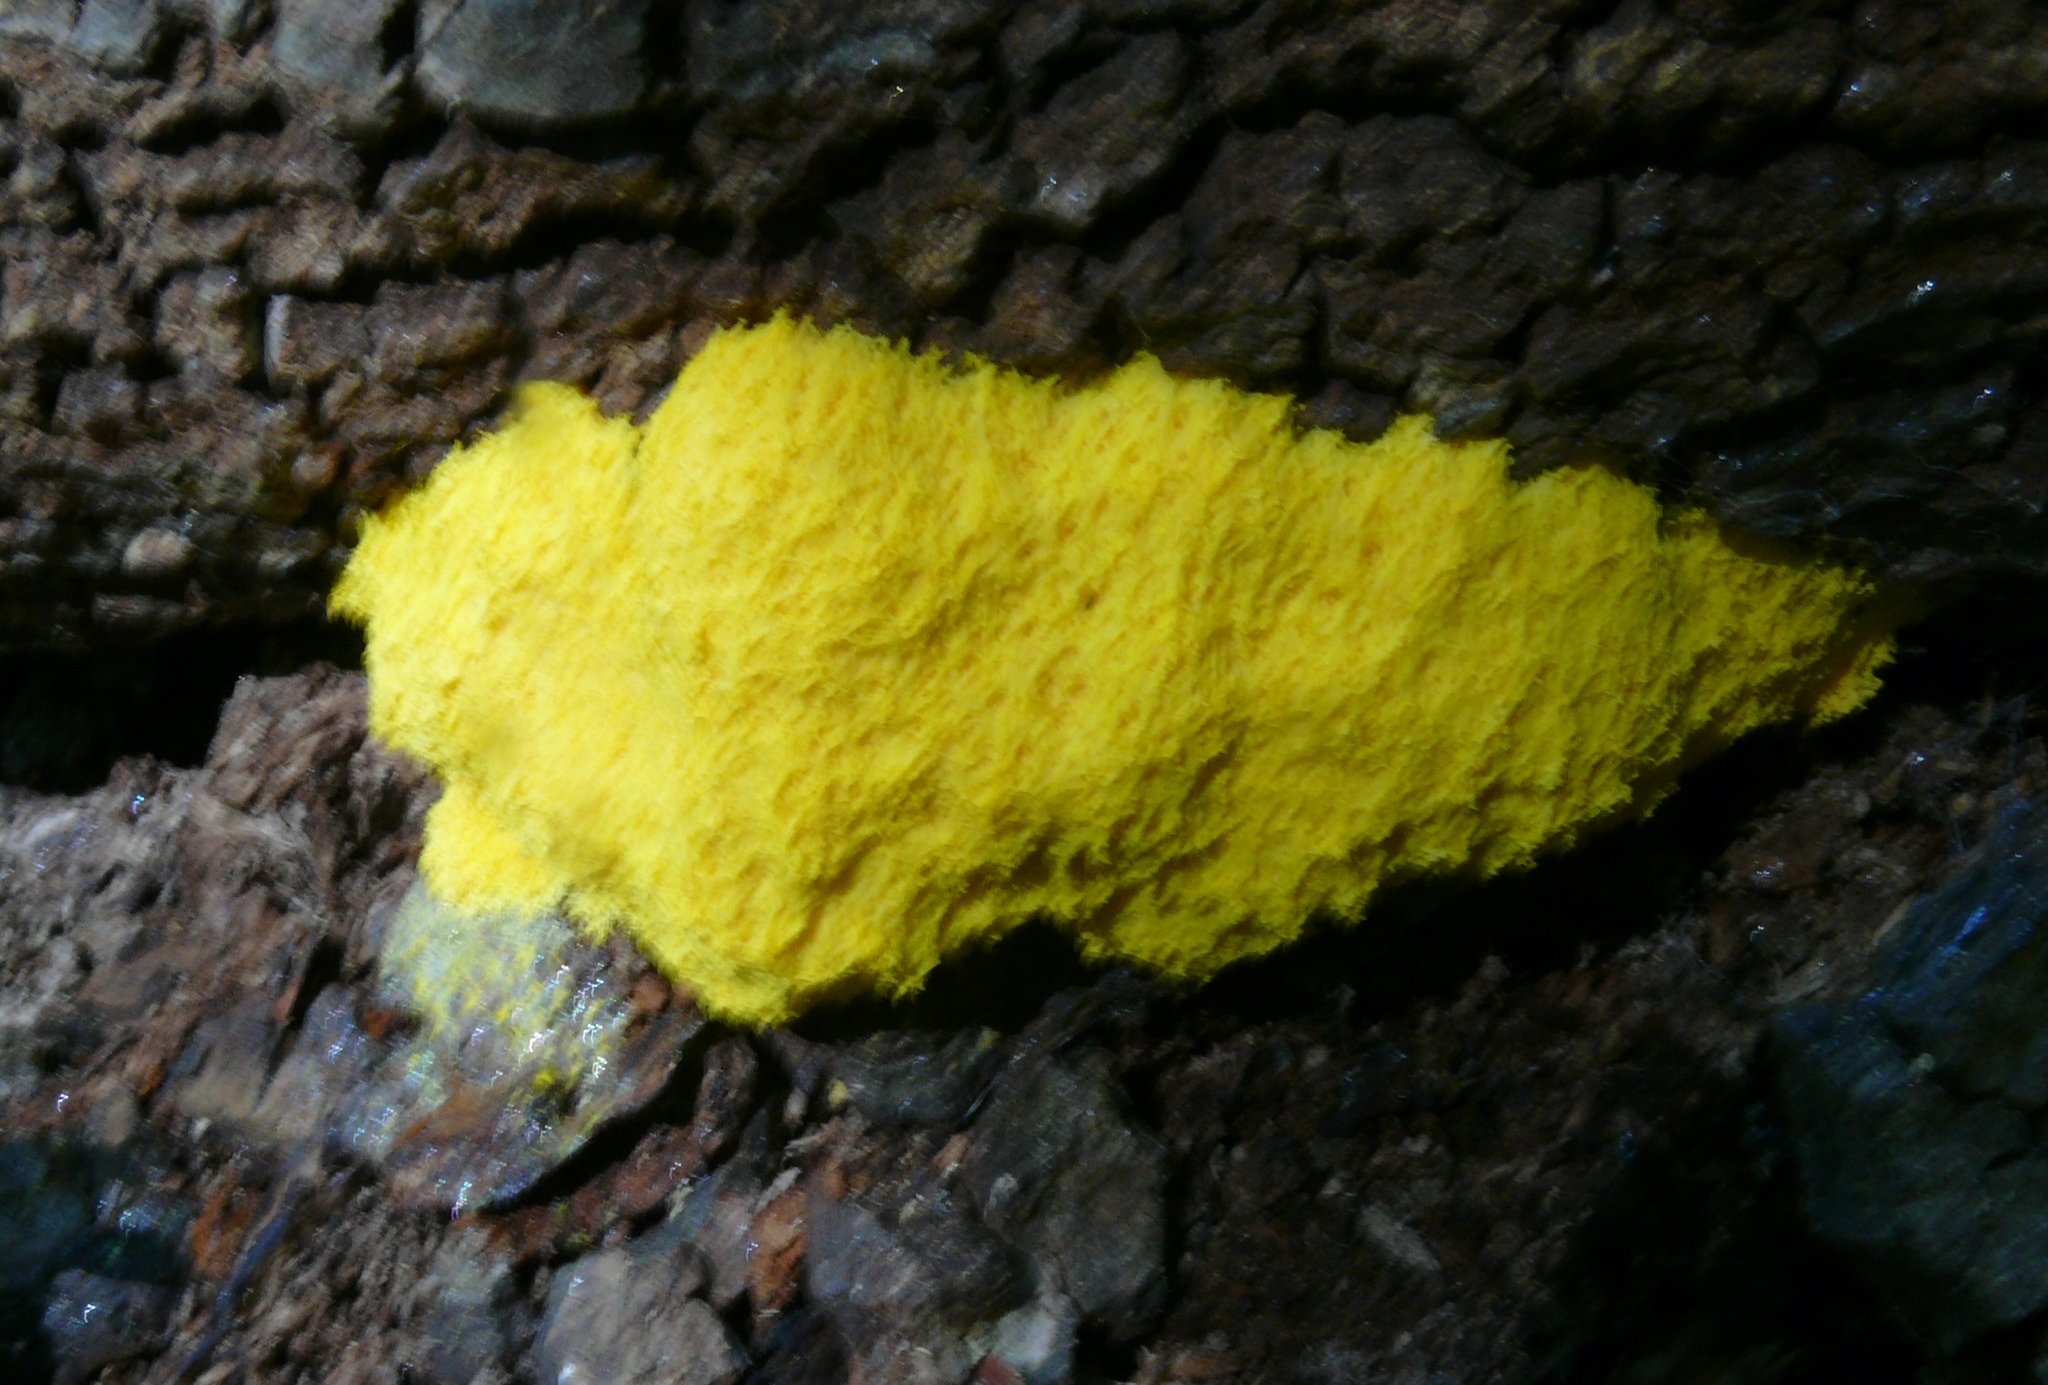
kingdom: Protozoa
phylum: Mycetozoa
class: Myxomycetes
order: Physarales
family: Physaraceae
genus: Fuligo
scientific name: Fuligo septica
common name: Dog vomit slime mold
